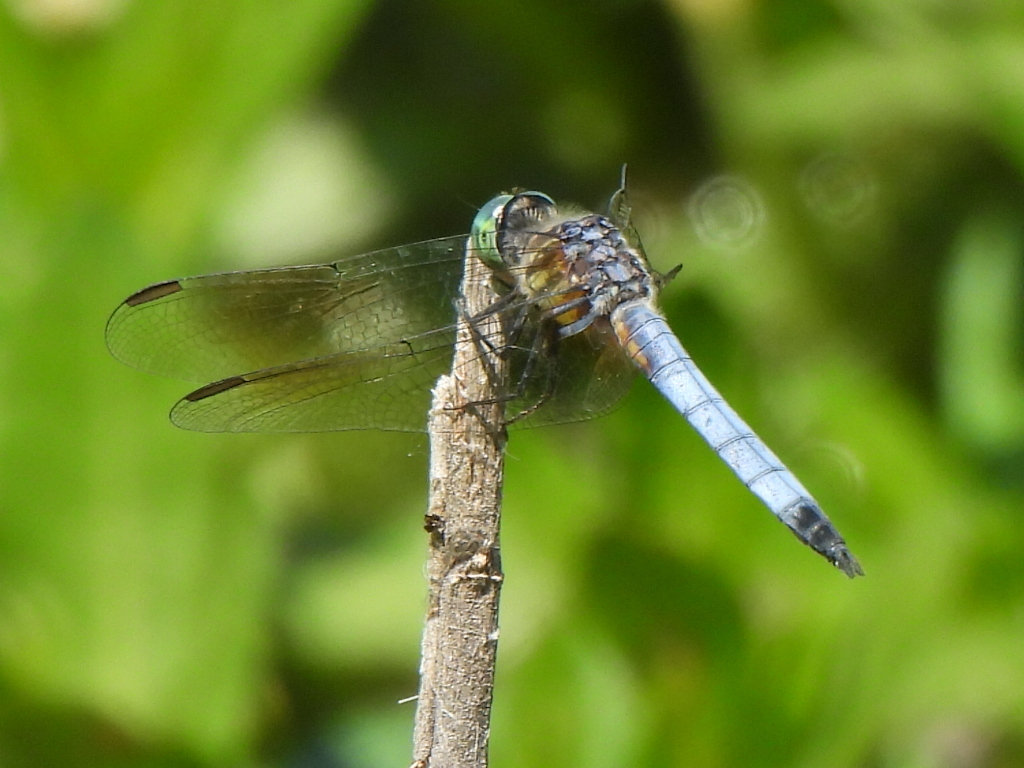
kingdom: Animalia
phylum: Arthropoda
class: Insecta
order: Odonata
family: Libellulidae
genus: Pachydiplax
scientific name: Pachydiplax longipennis
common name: Blue dasher
